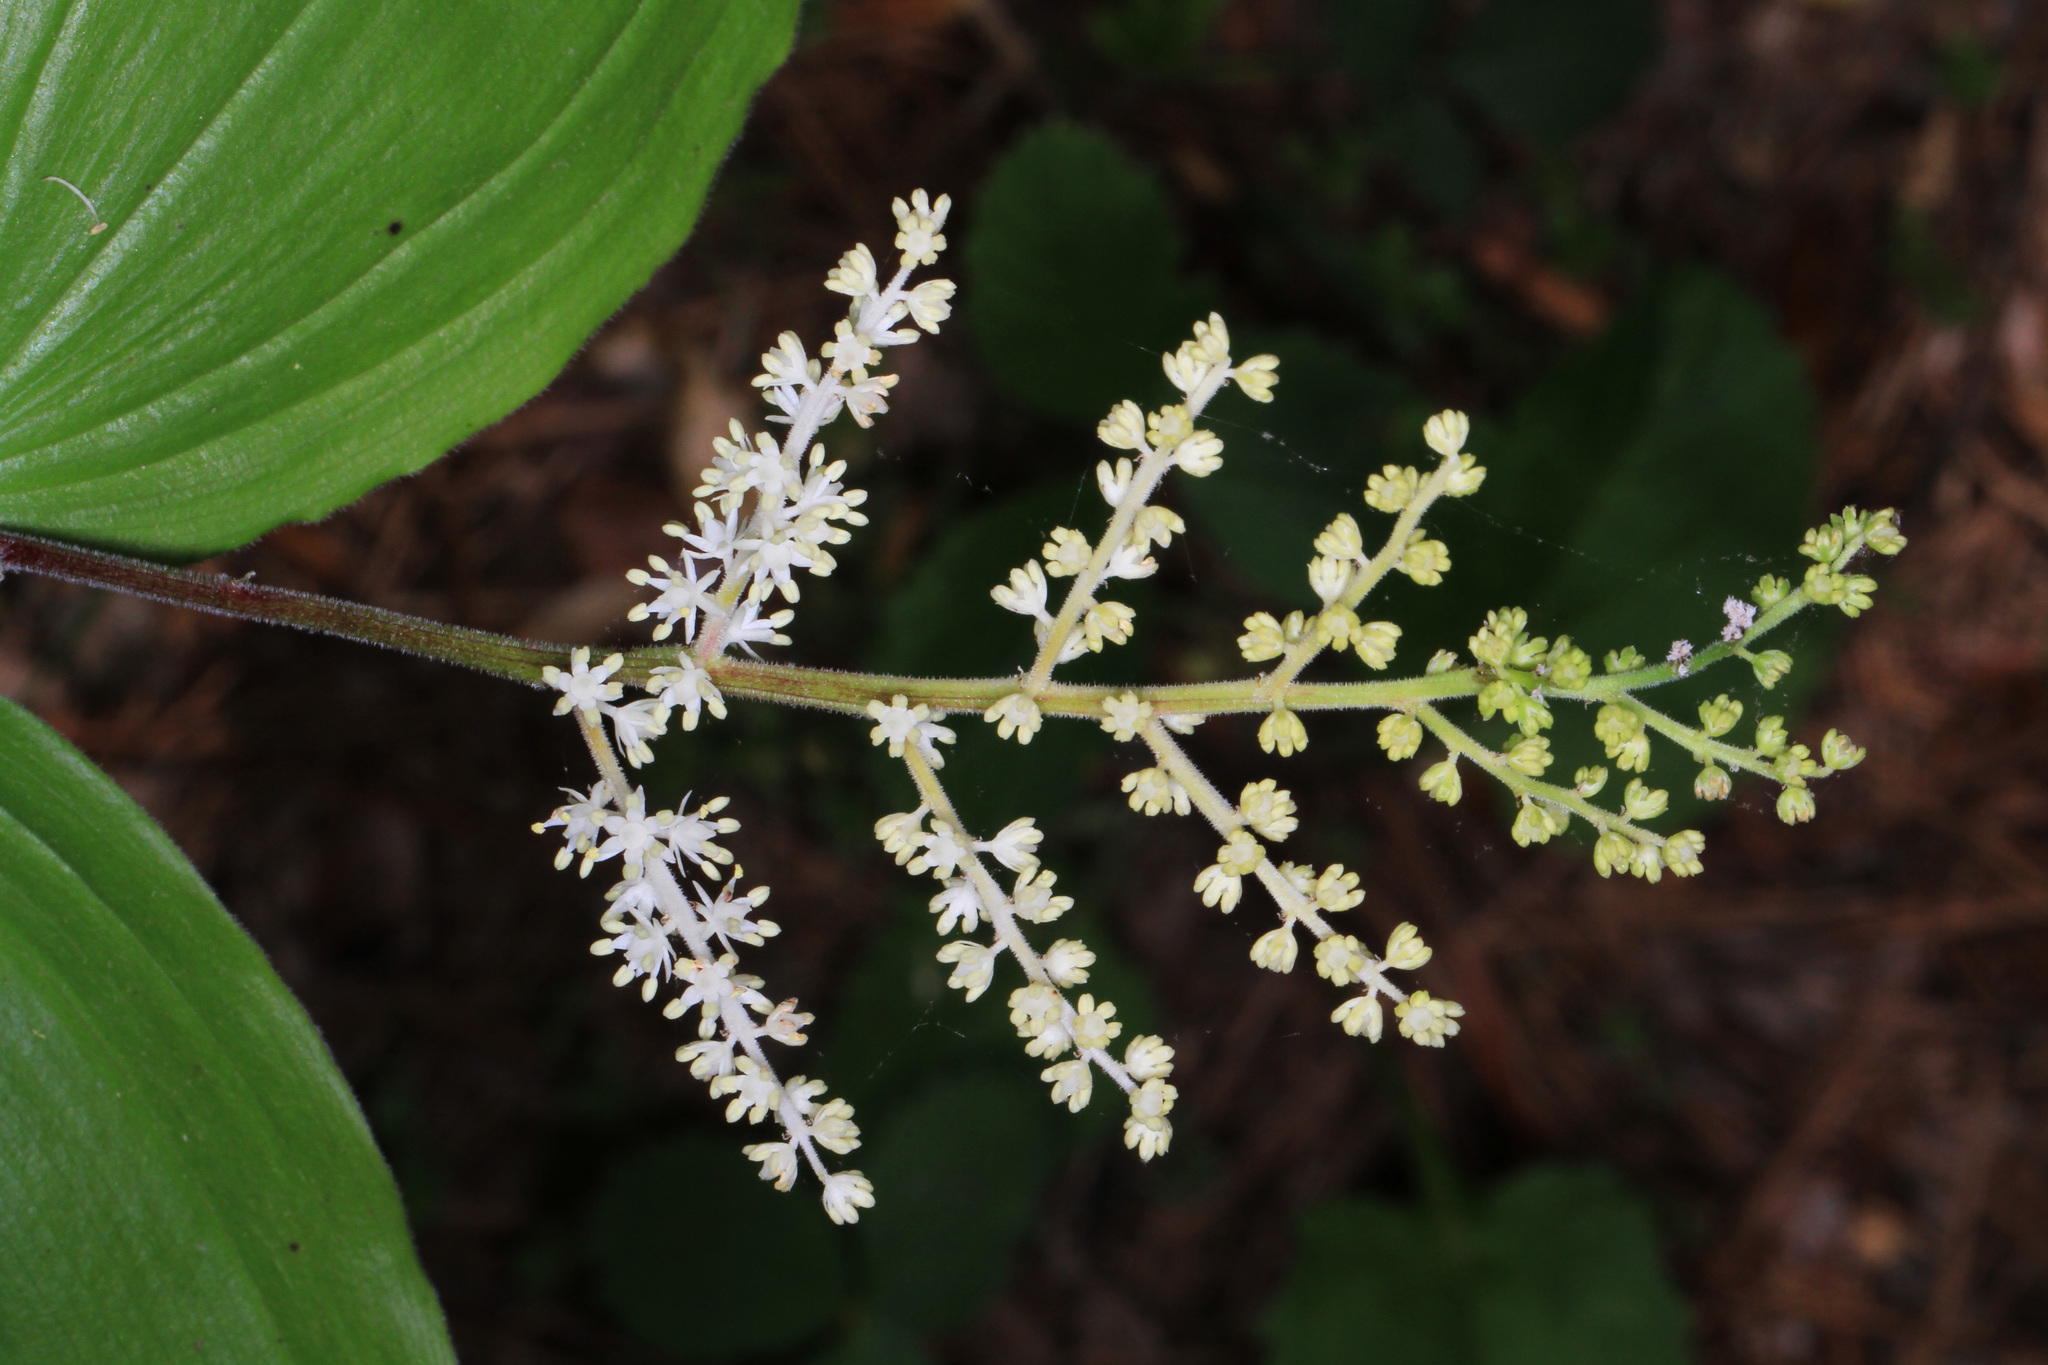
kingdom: Plantae
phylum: Tracheophyta
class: Liliopsida
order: Asparagales
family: Asparagaceae
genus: Maianthemum
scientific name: Maianthemum racemosum
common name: False spikenard
